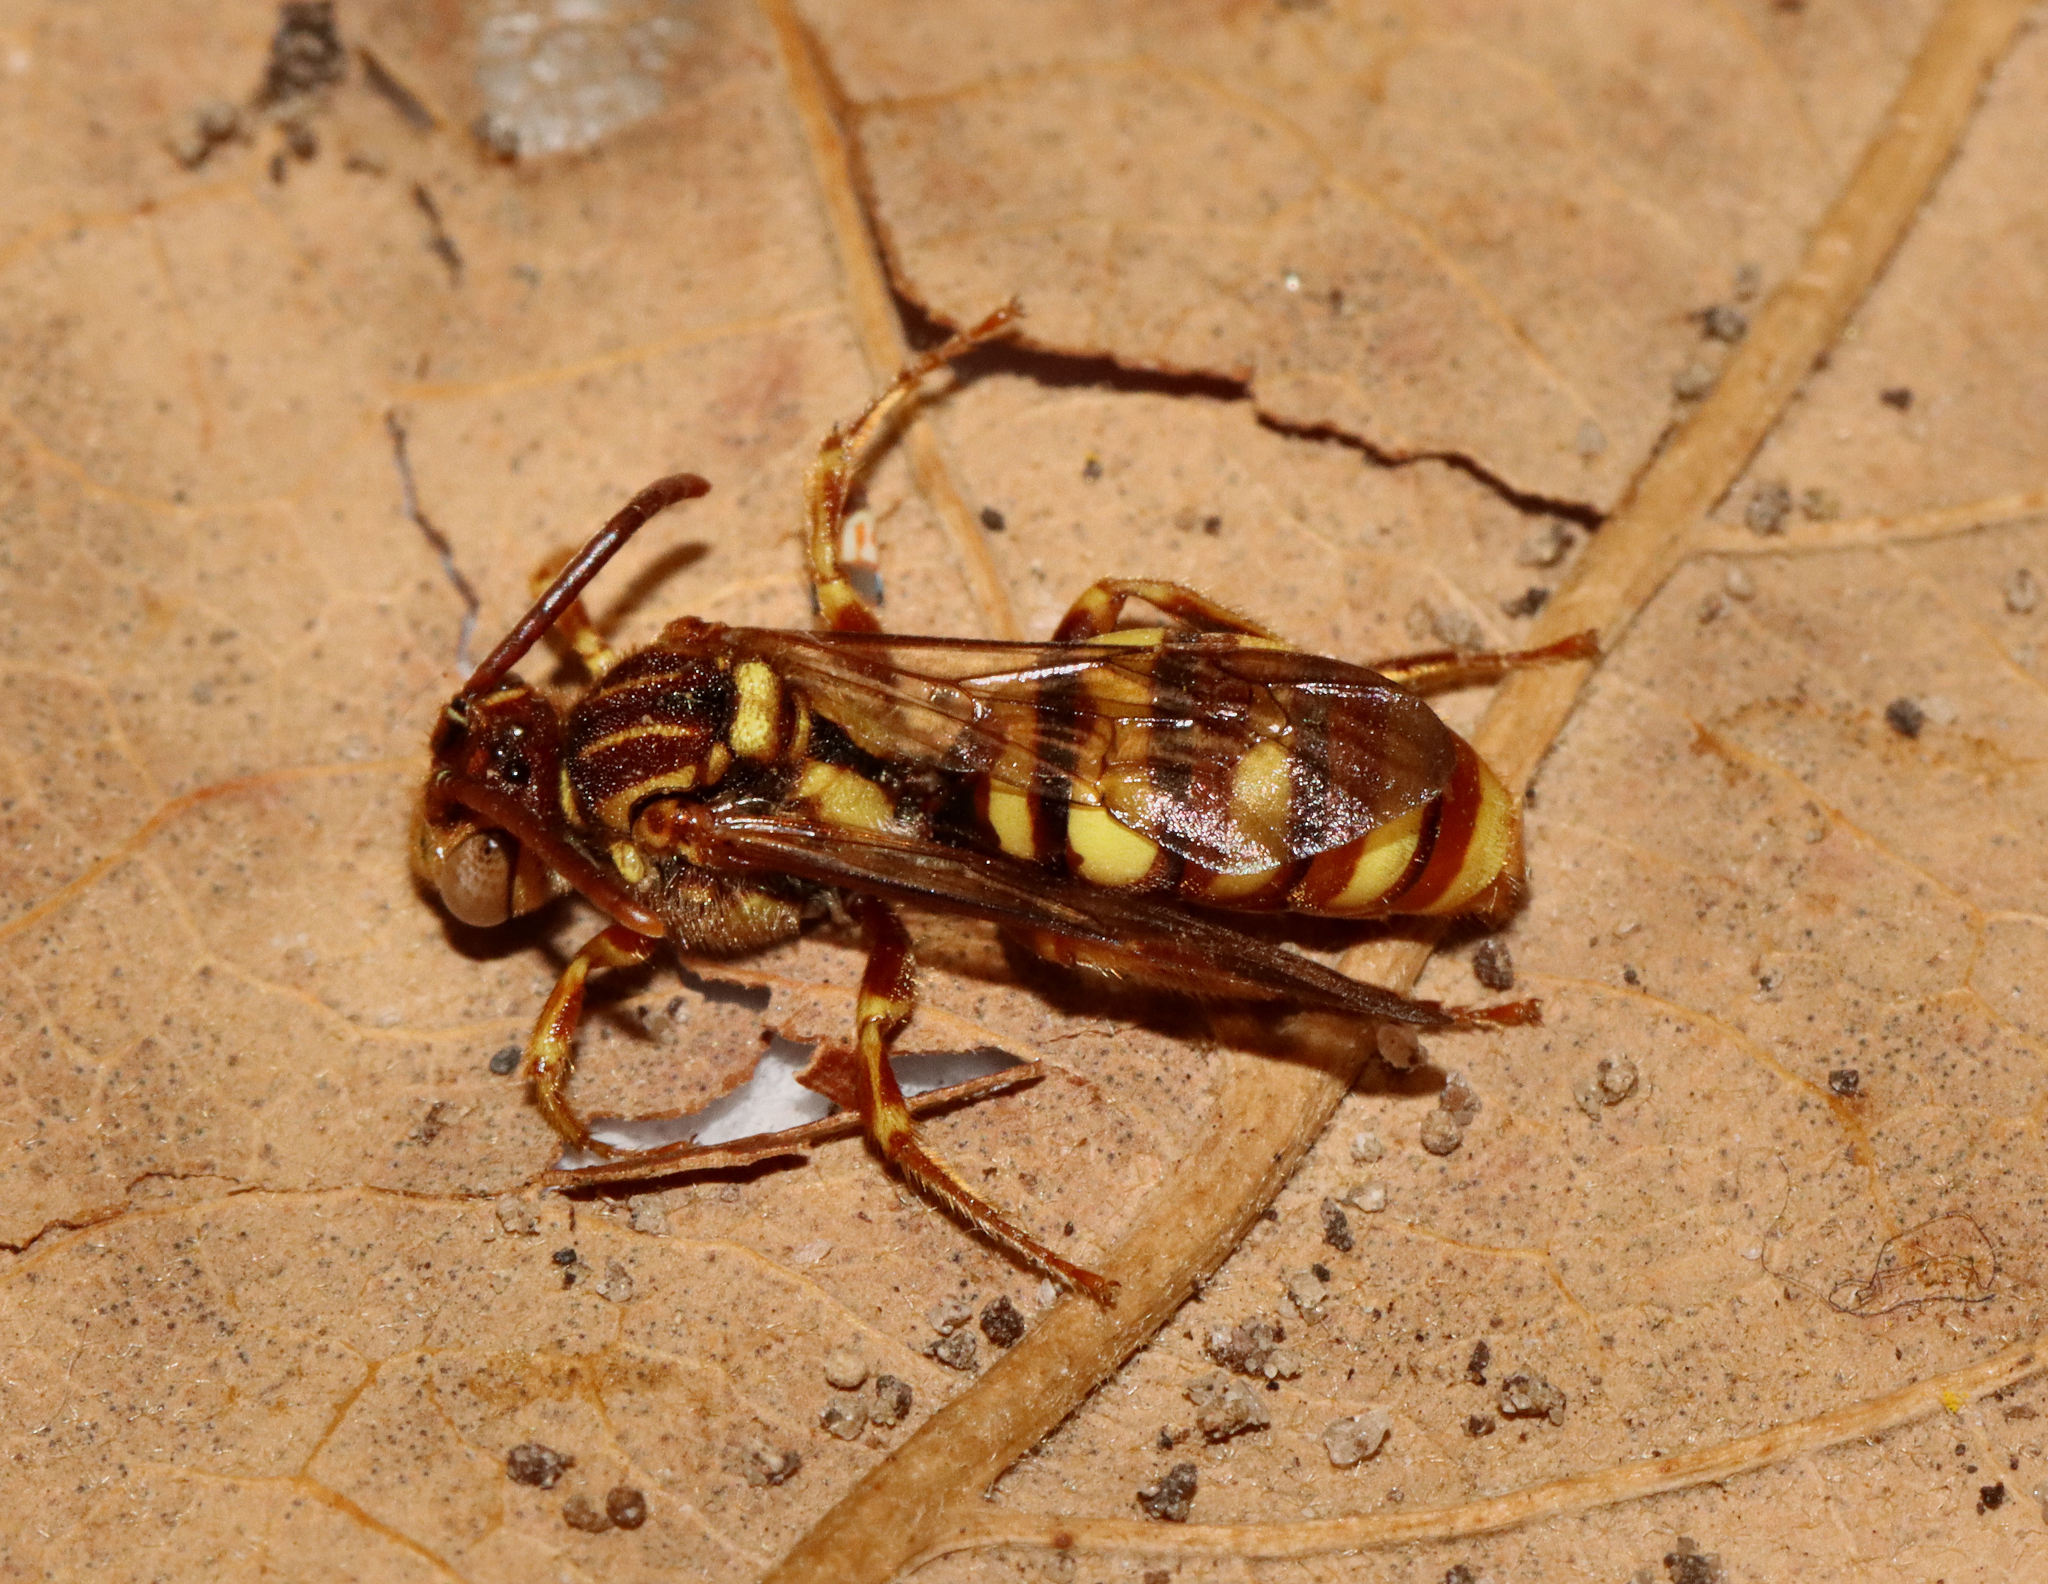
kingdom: Animalia
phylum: Arthropoda
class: Insecta
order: Hymenoptera
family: Apidae
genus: Nomada
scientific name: Nomada
